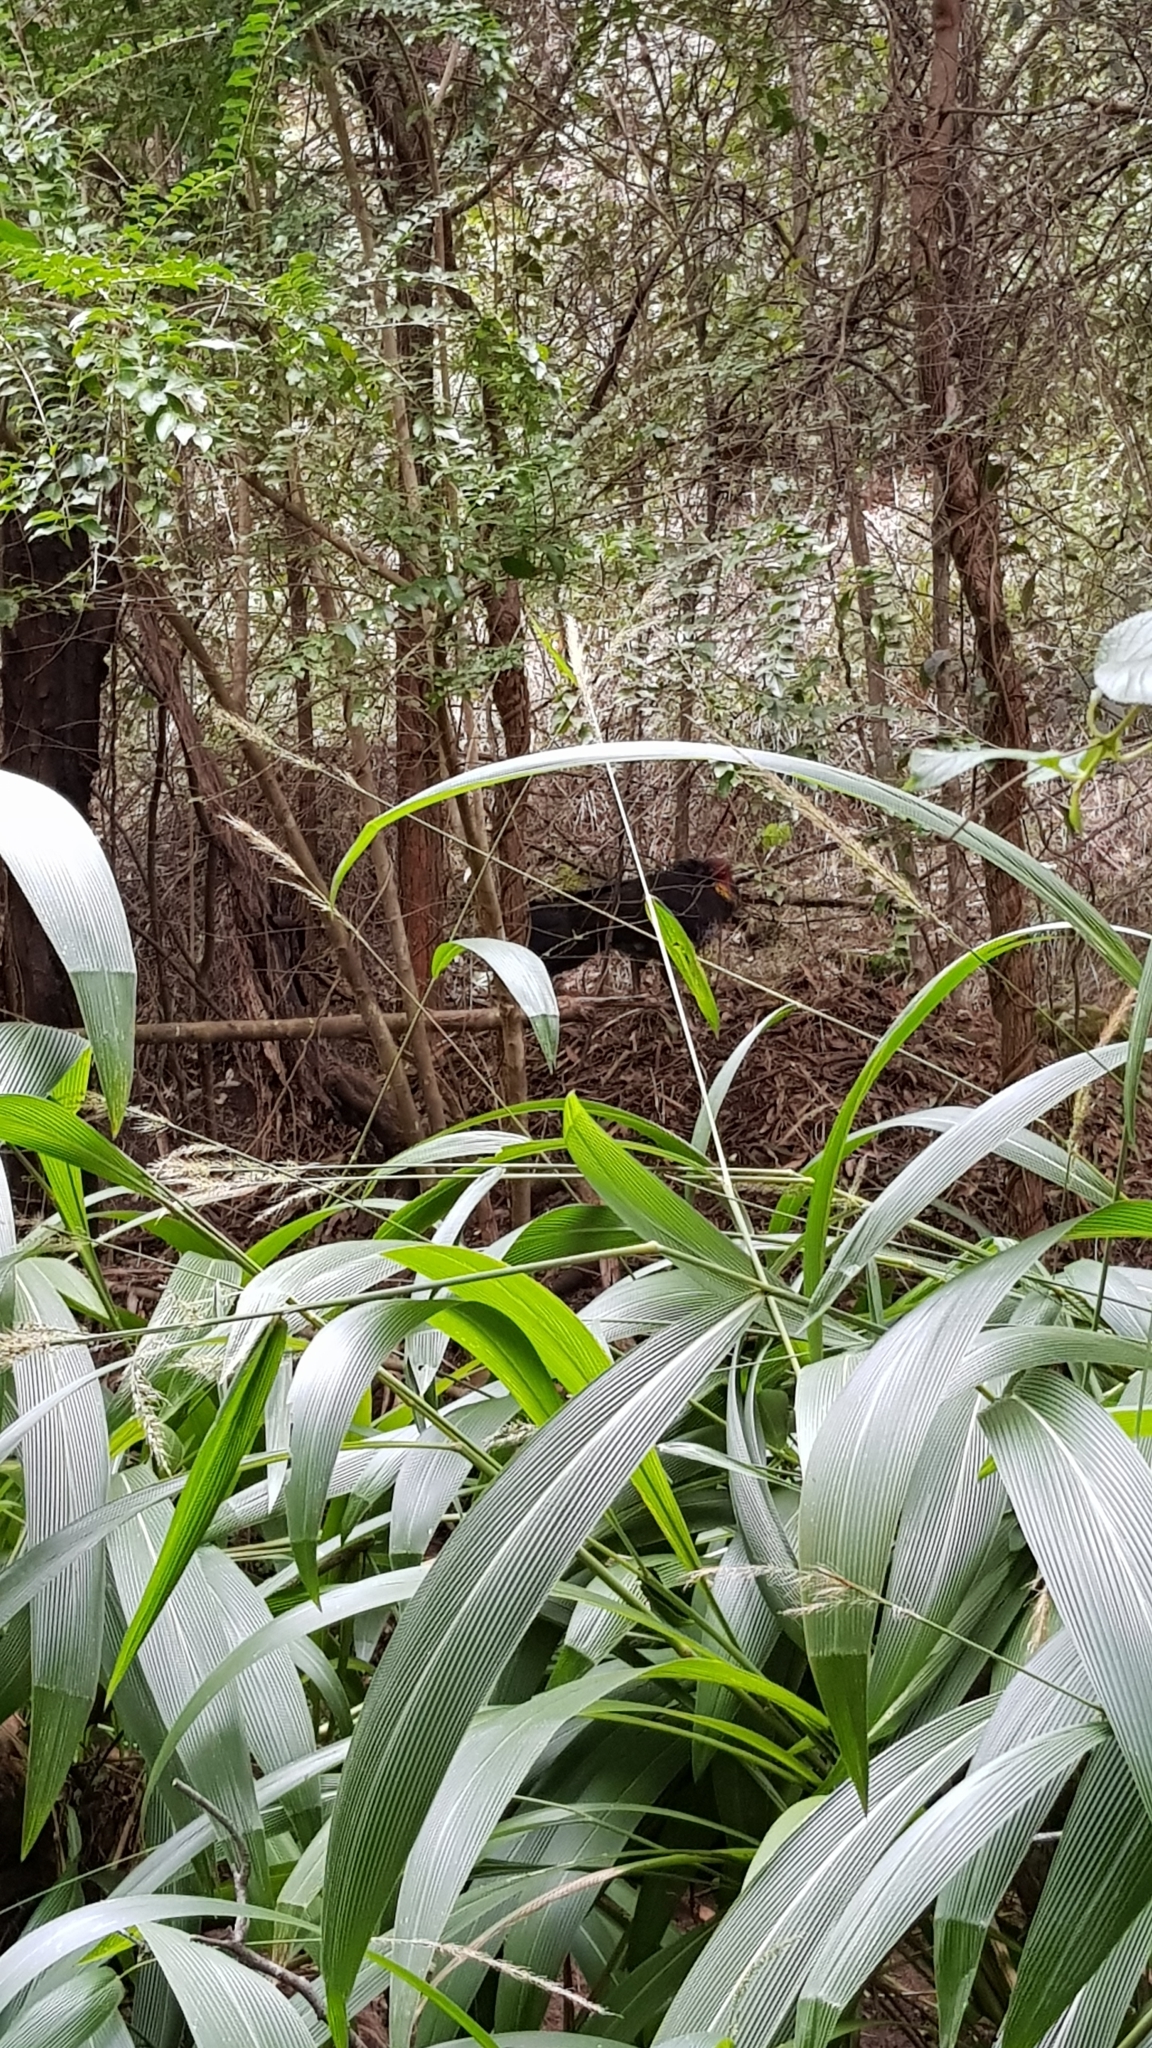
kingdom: Animalia
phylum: Chordata
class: Aves
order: Galliformes
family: Megapodiidae
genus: Alectura
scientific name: Alectura lathami
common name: Australian brushturkey
